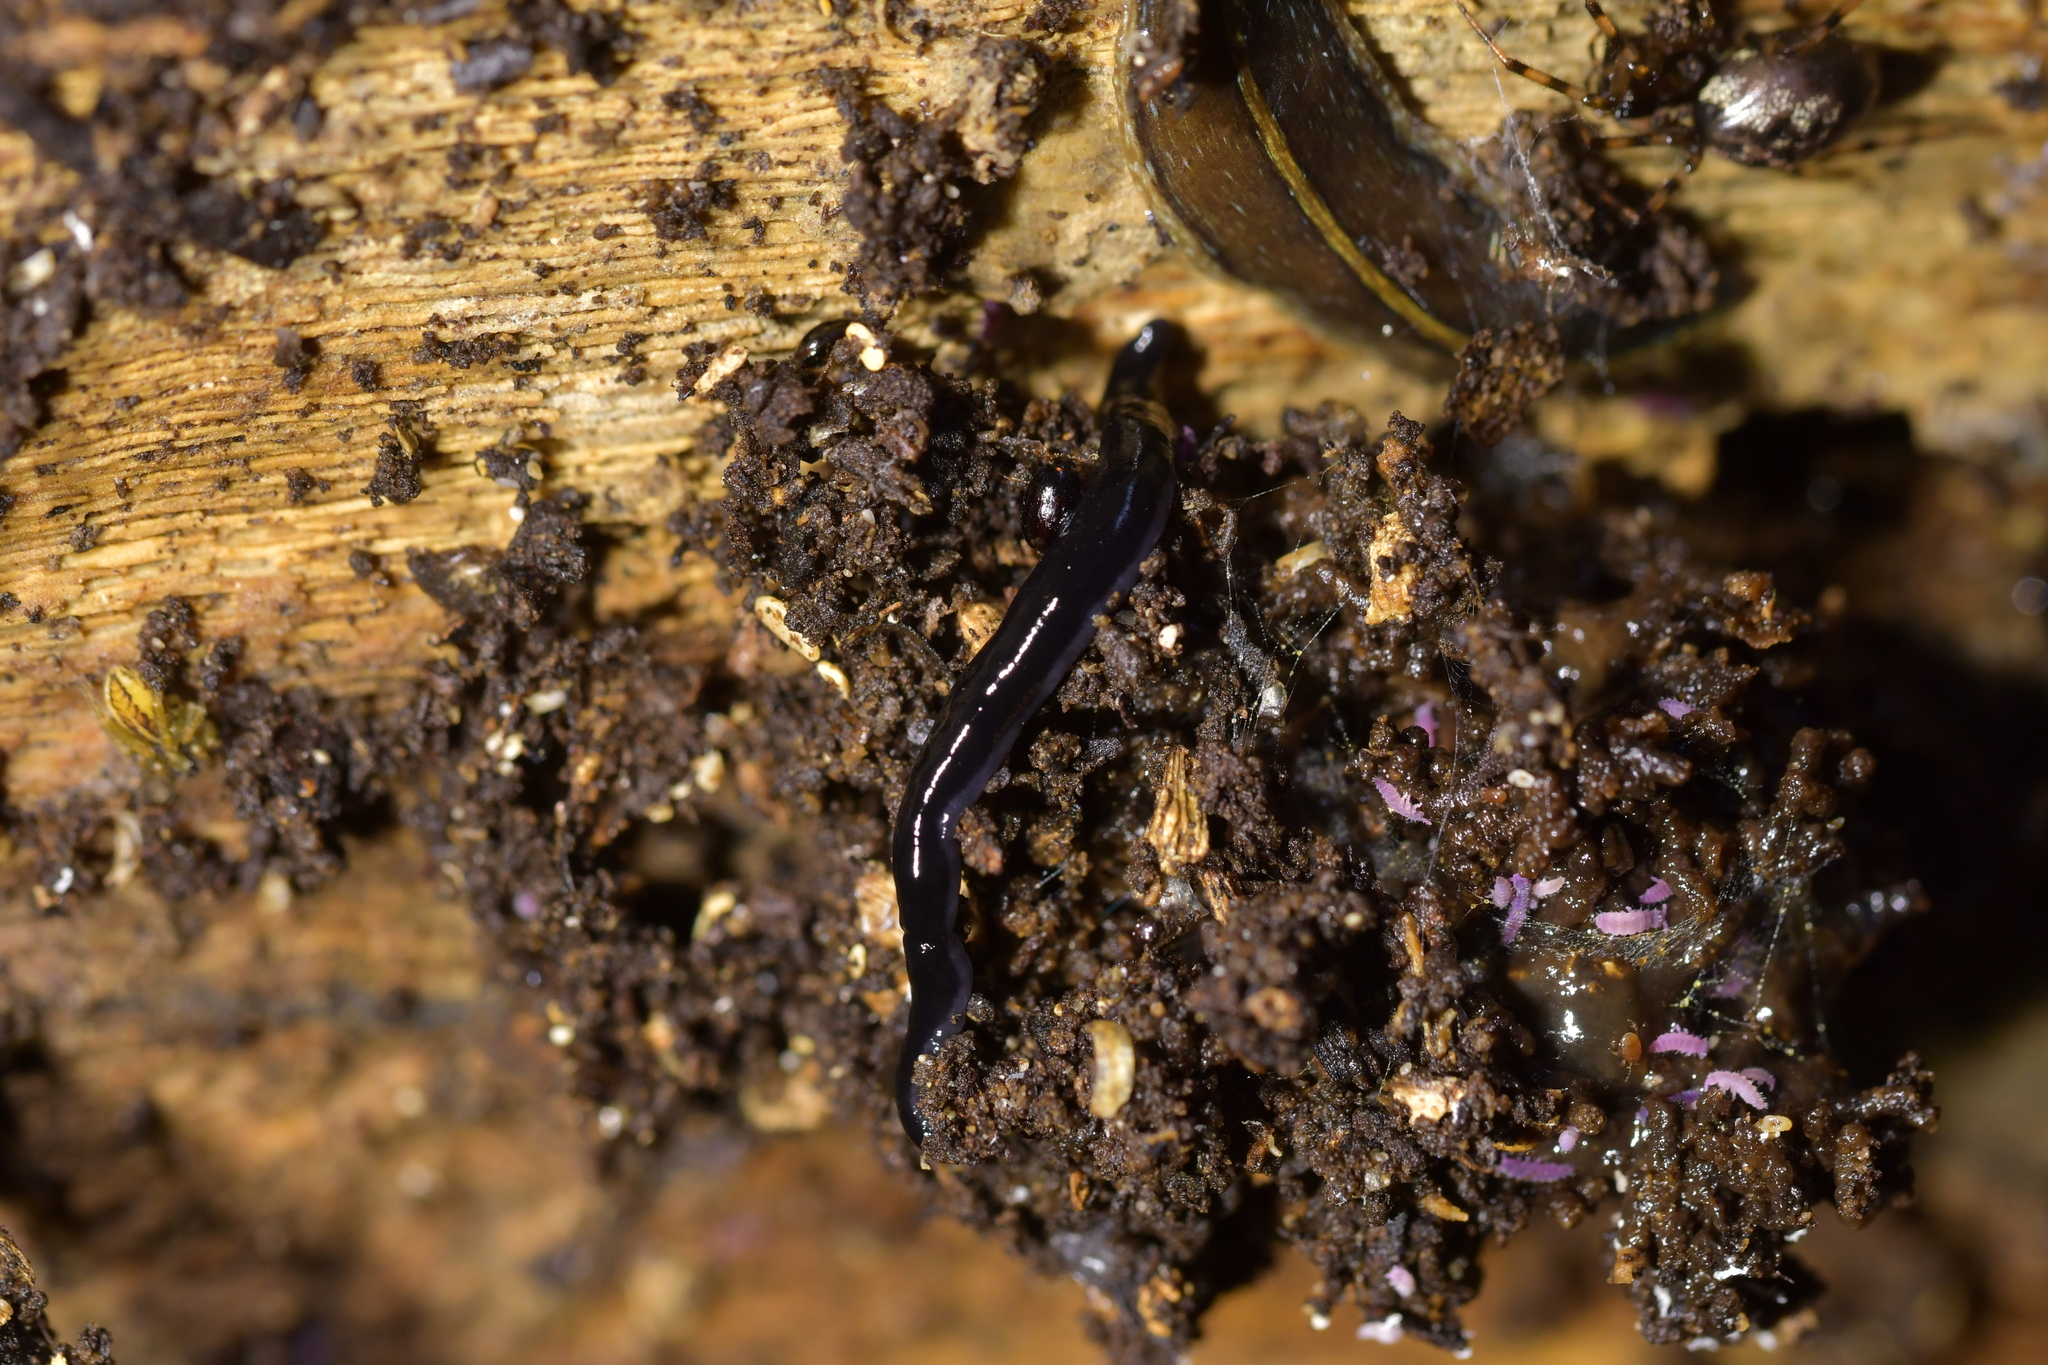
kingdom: Animalia
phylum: Platyhelminthes
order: Tricladida
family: Geoplanidae
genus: Parakontikia
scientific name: Parakontikia ventrolineata
